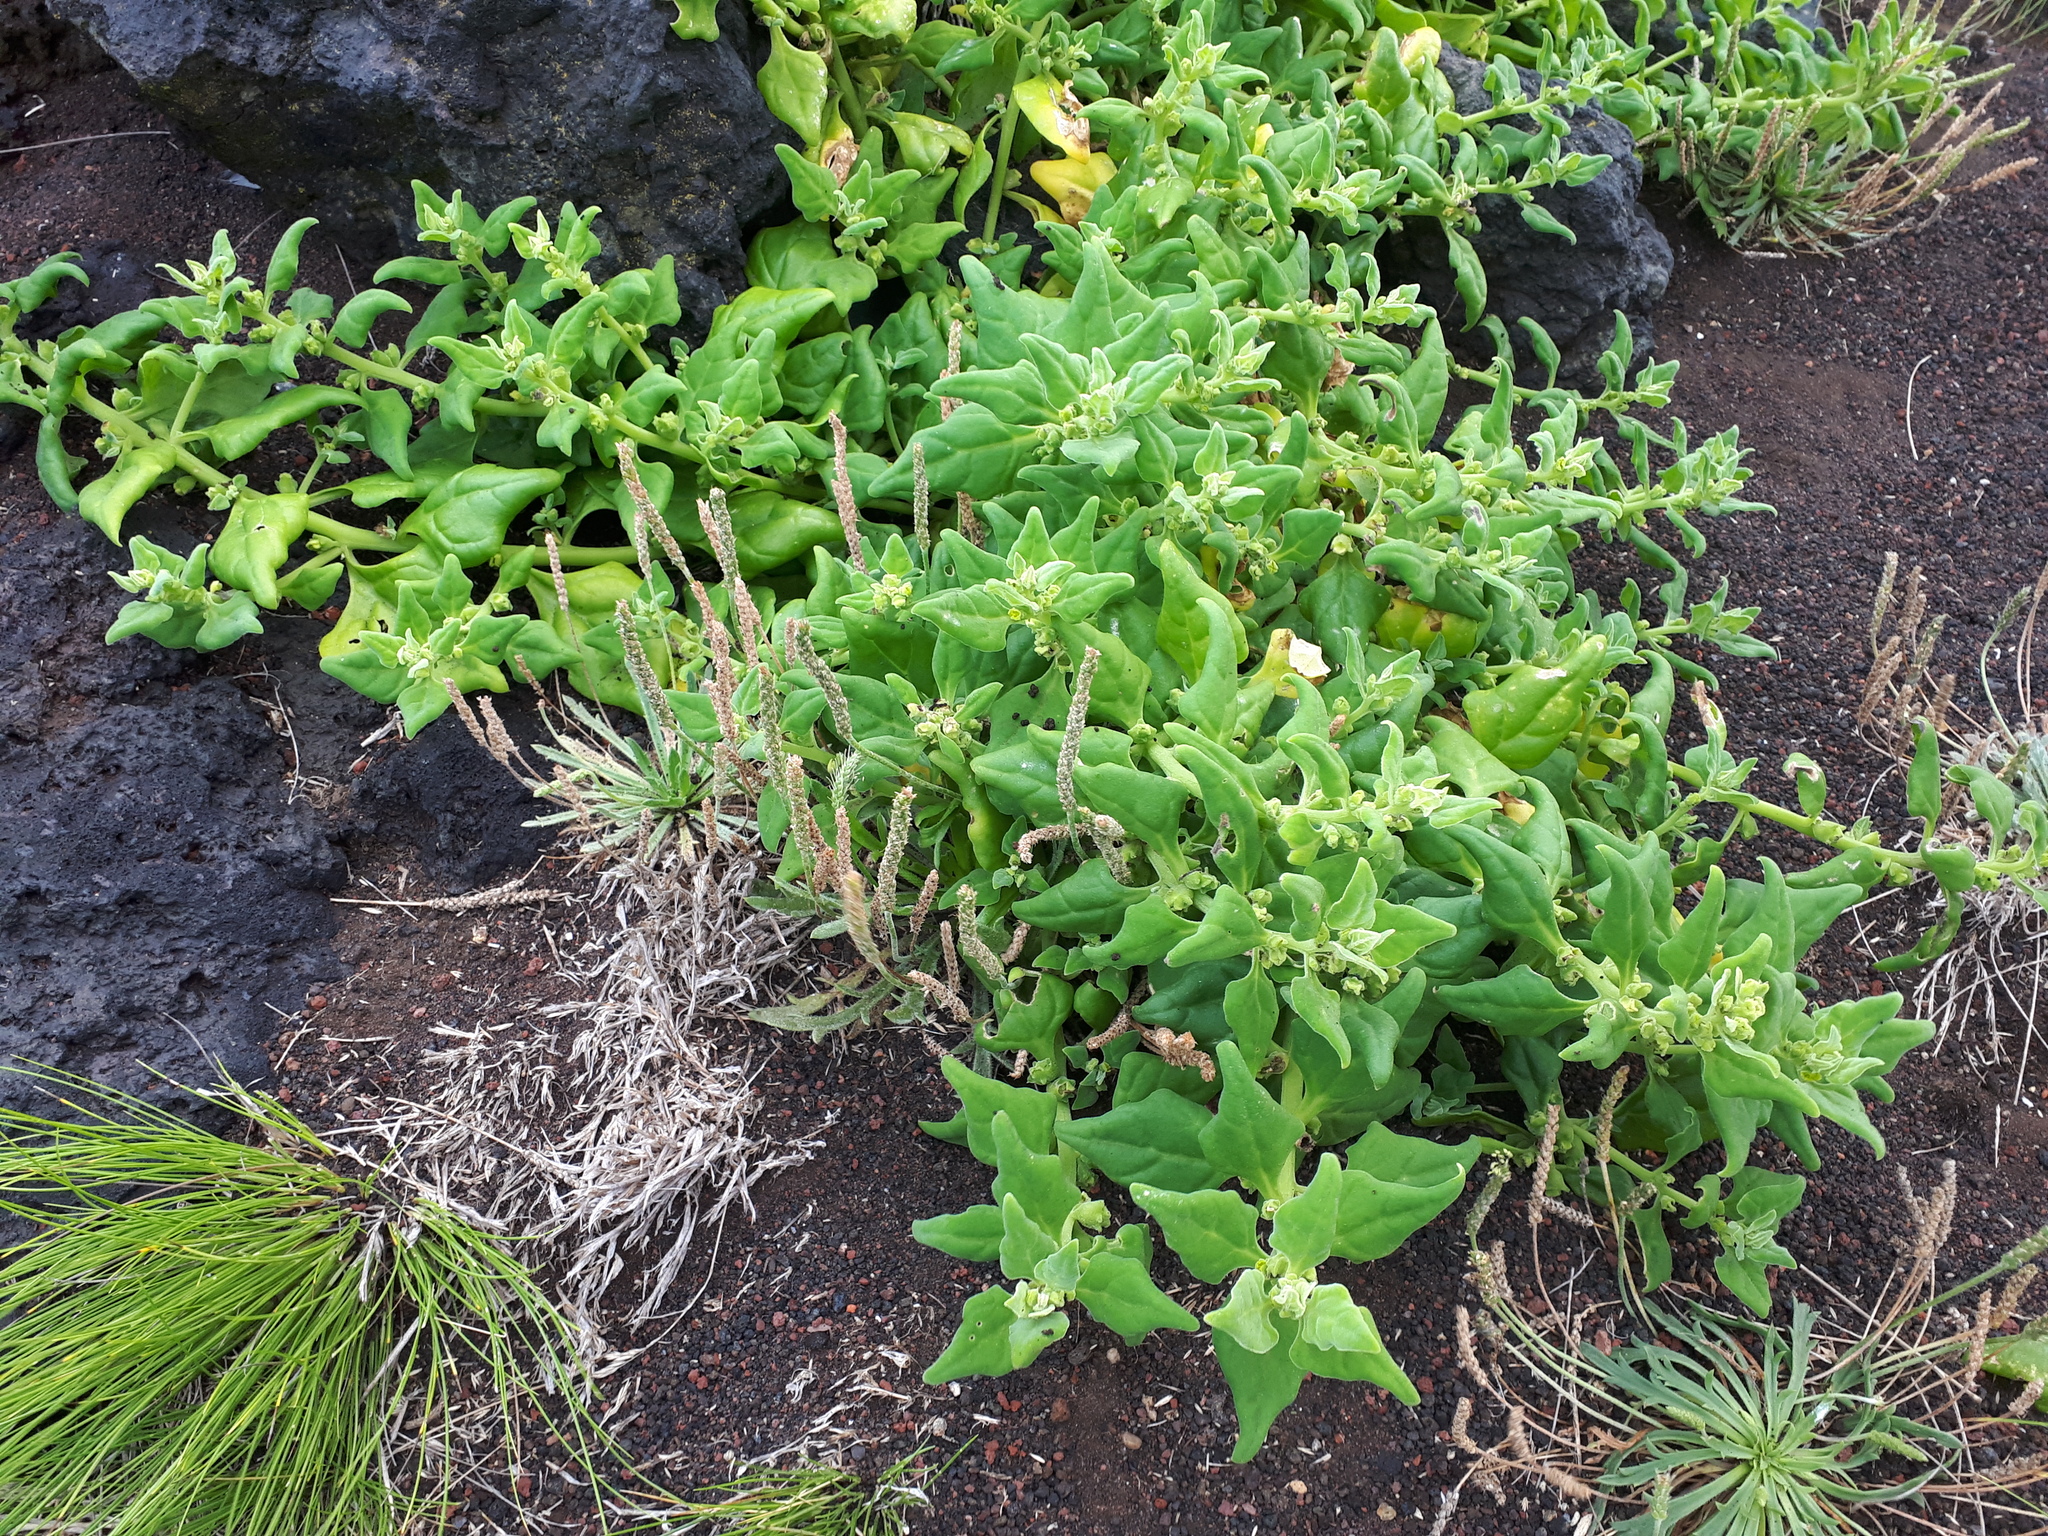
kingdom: Plantae
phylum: Tracheophyta
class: Magnoliopsida
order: Caryophyllales
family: Aizoaceae
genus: Tetragonia
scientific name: Tetragonia tetragonoides
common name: New zealand-spinach
